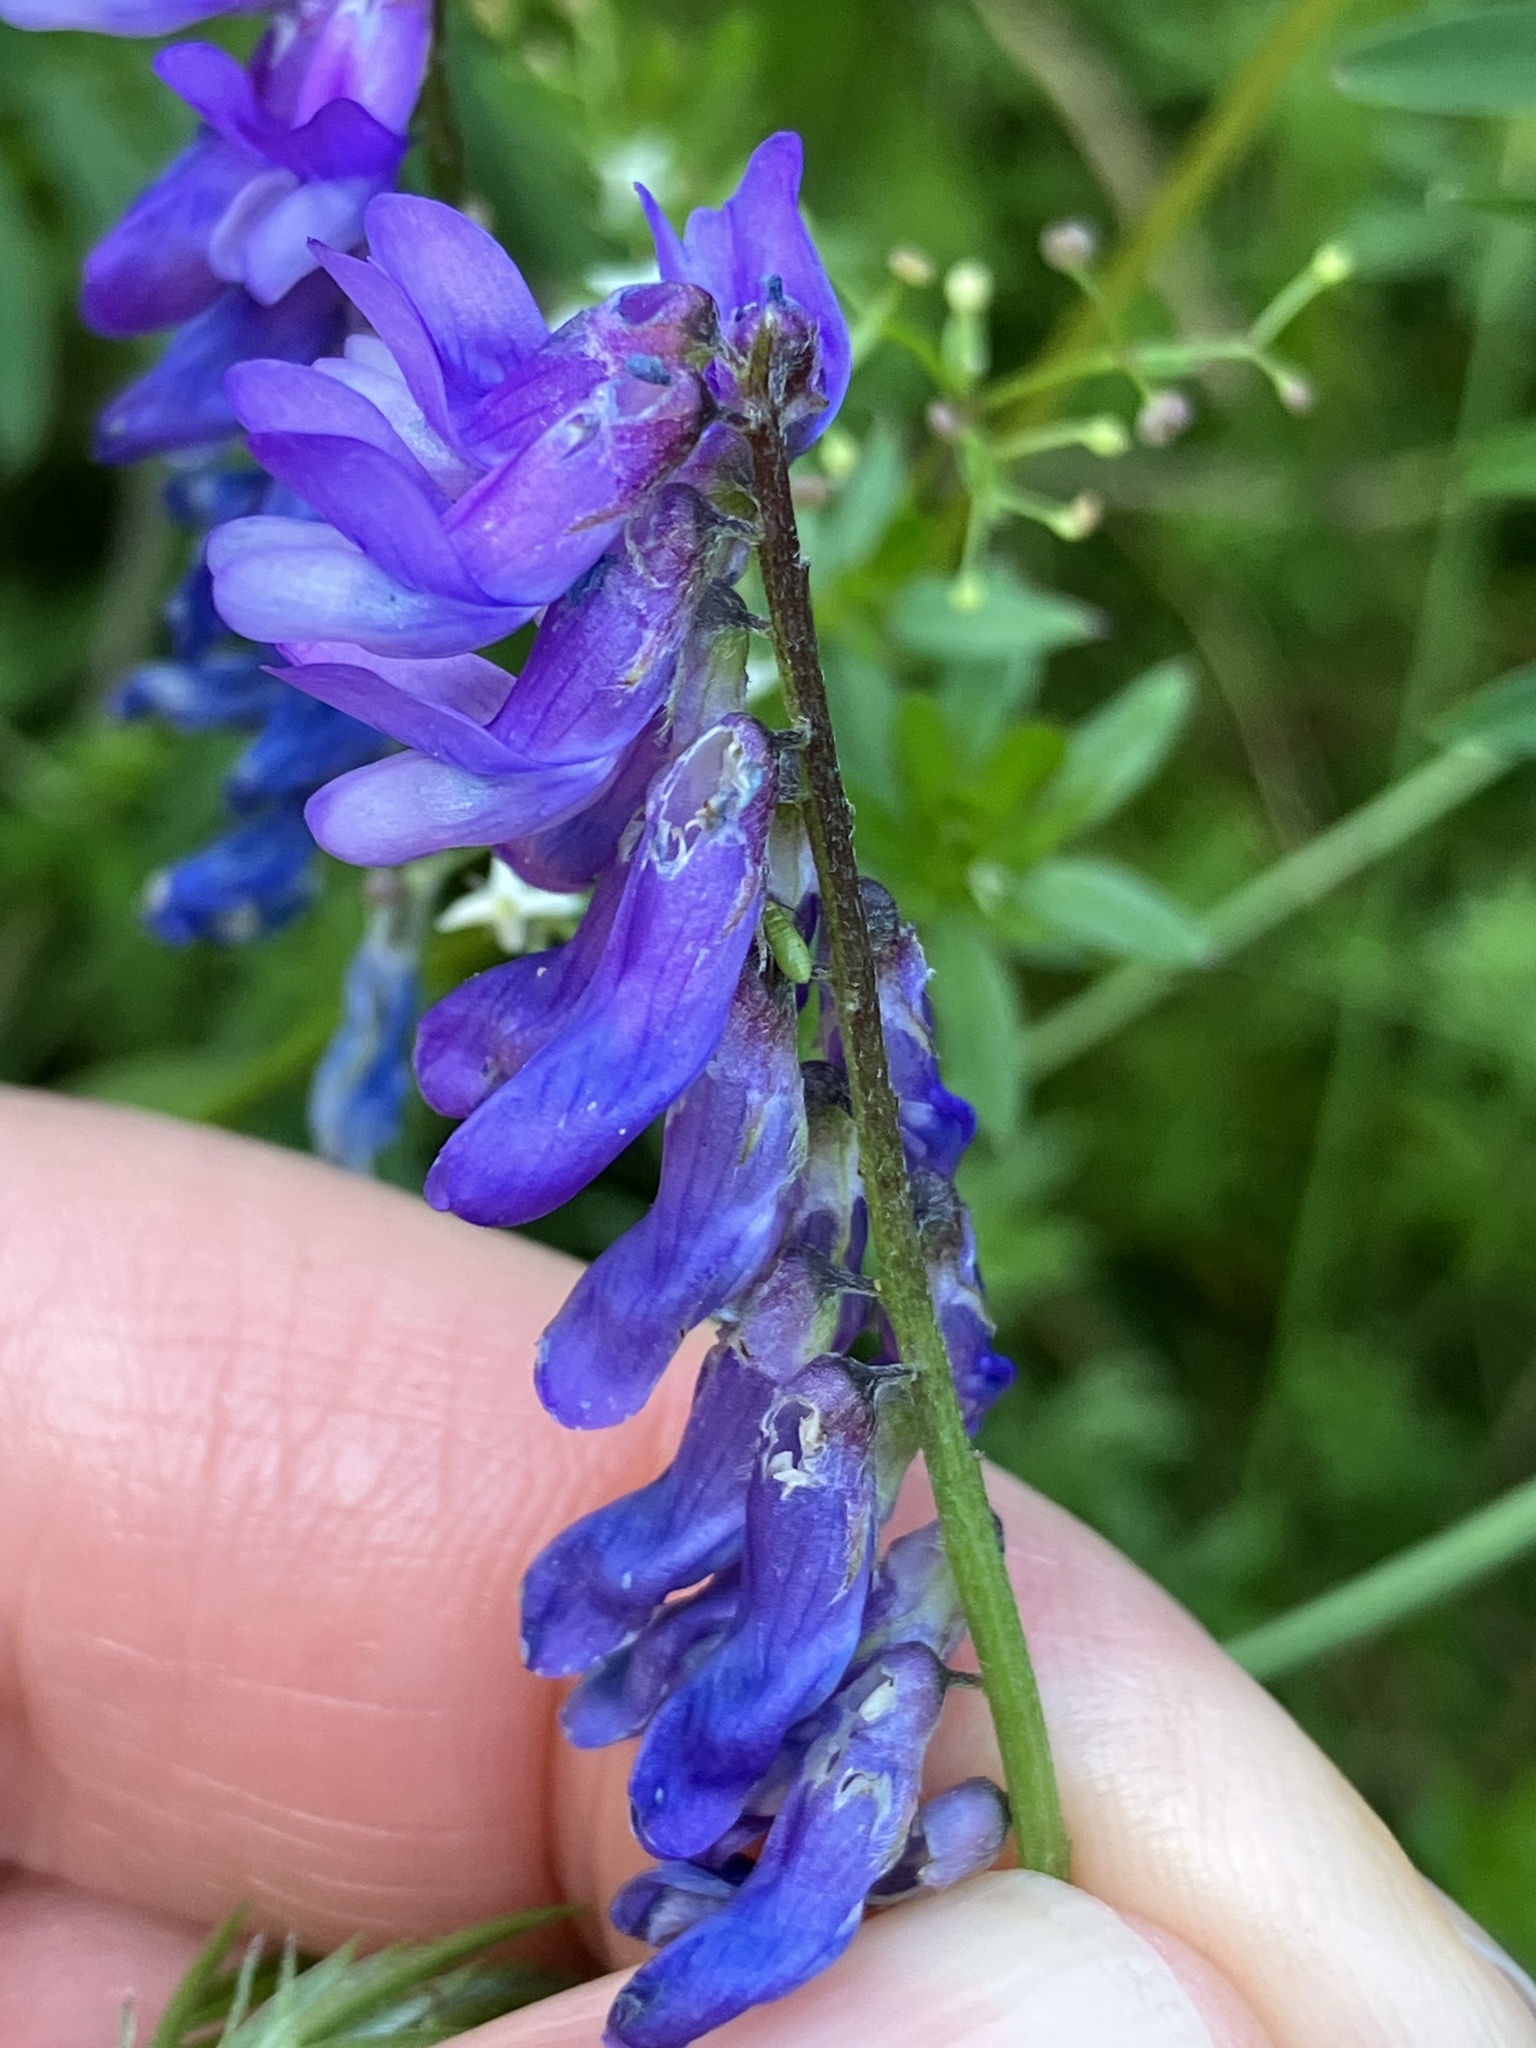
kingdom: Plantae
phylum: Tracheophyta
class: Magnoliopsida
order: Fabales
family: Fabaceae
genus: Vicia
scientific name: Vicia cracca
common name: Bird vetch
